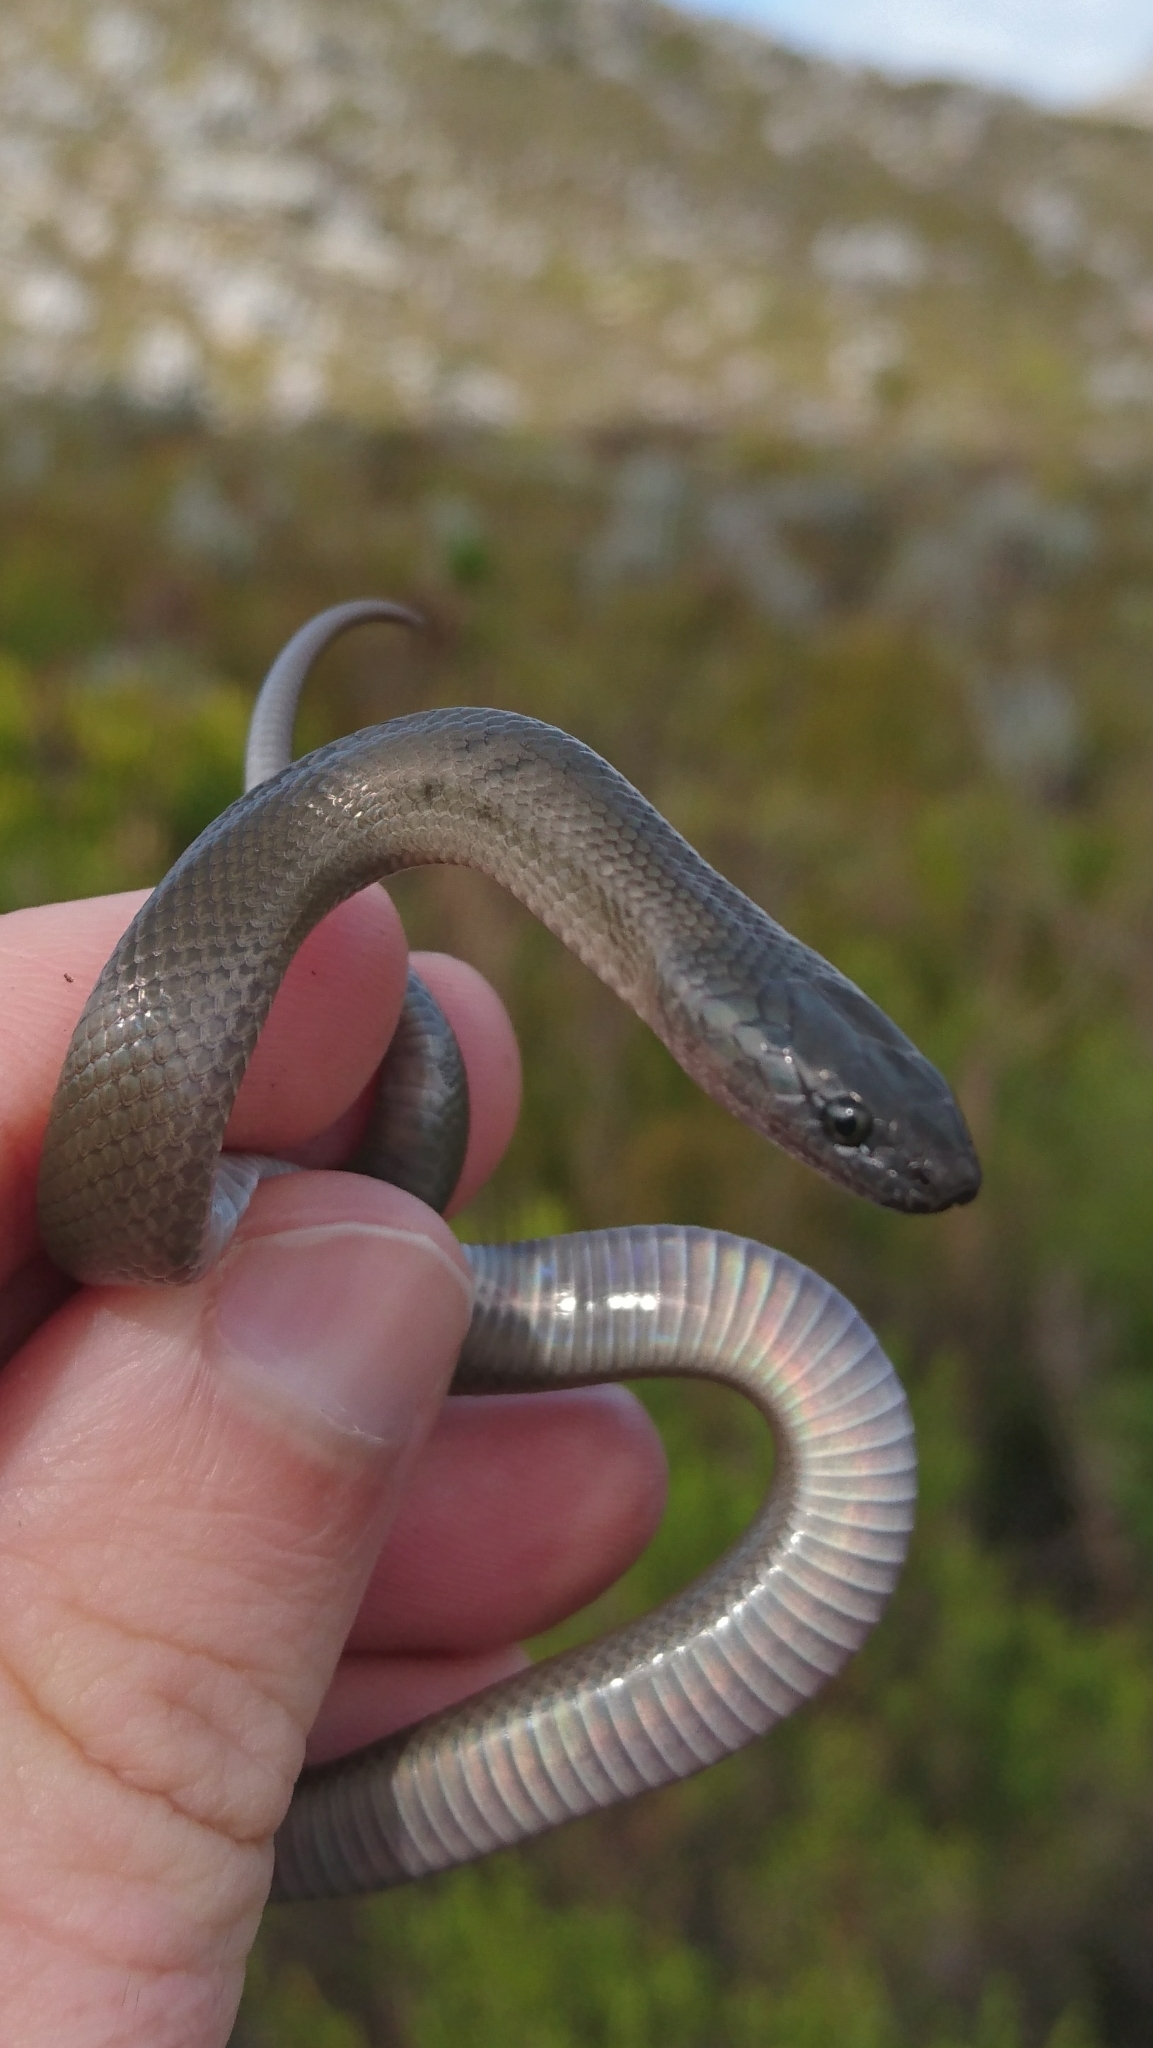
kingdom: Animalia
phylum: Chordata
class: Squamata
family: Lamprophiidae
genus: Lycodonomorphus
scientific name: Lycodonomorphus inornatus
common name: Black house snake
